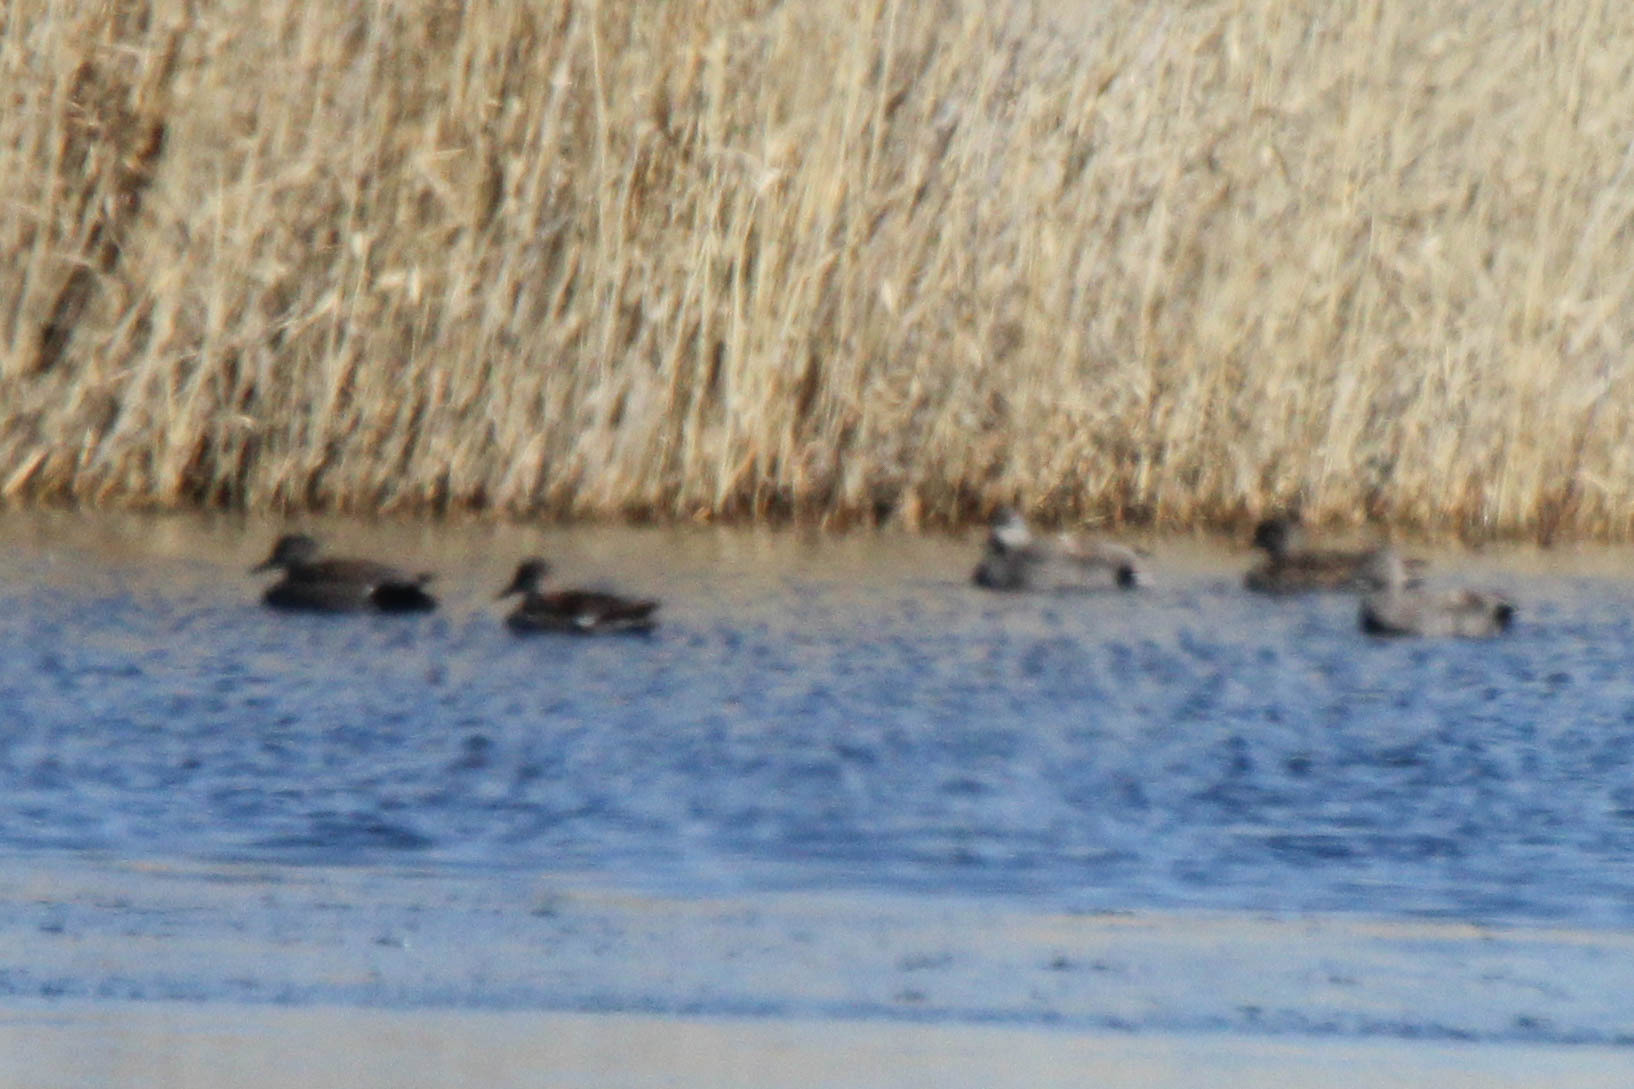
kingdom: Animalia
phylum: Chordata
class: Aves
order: Anseriformes
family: Anatidae
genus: Mareca
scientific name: Mareca strepera
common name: Gadwall
